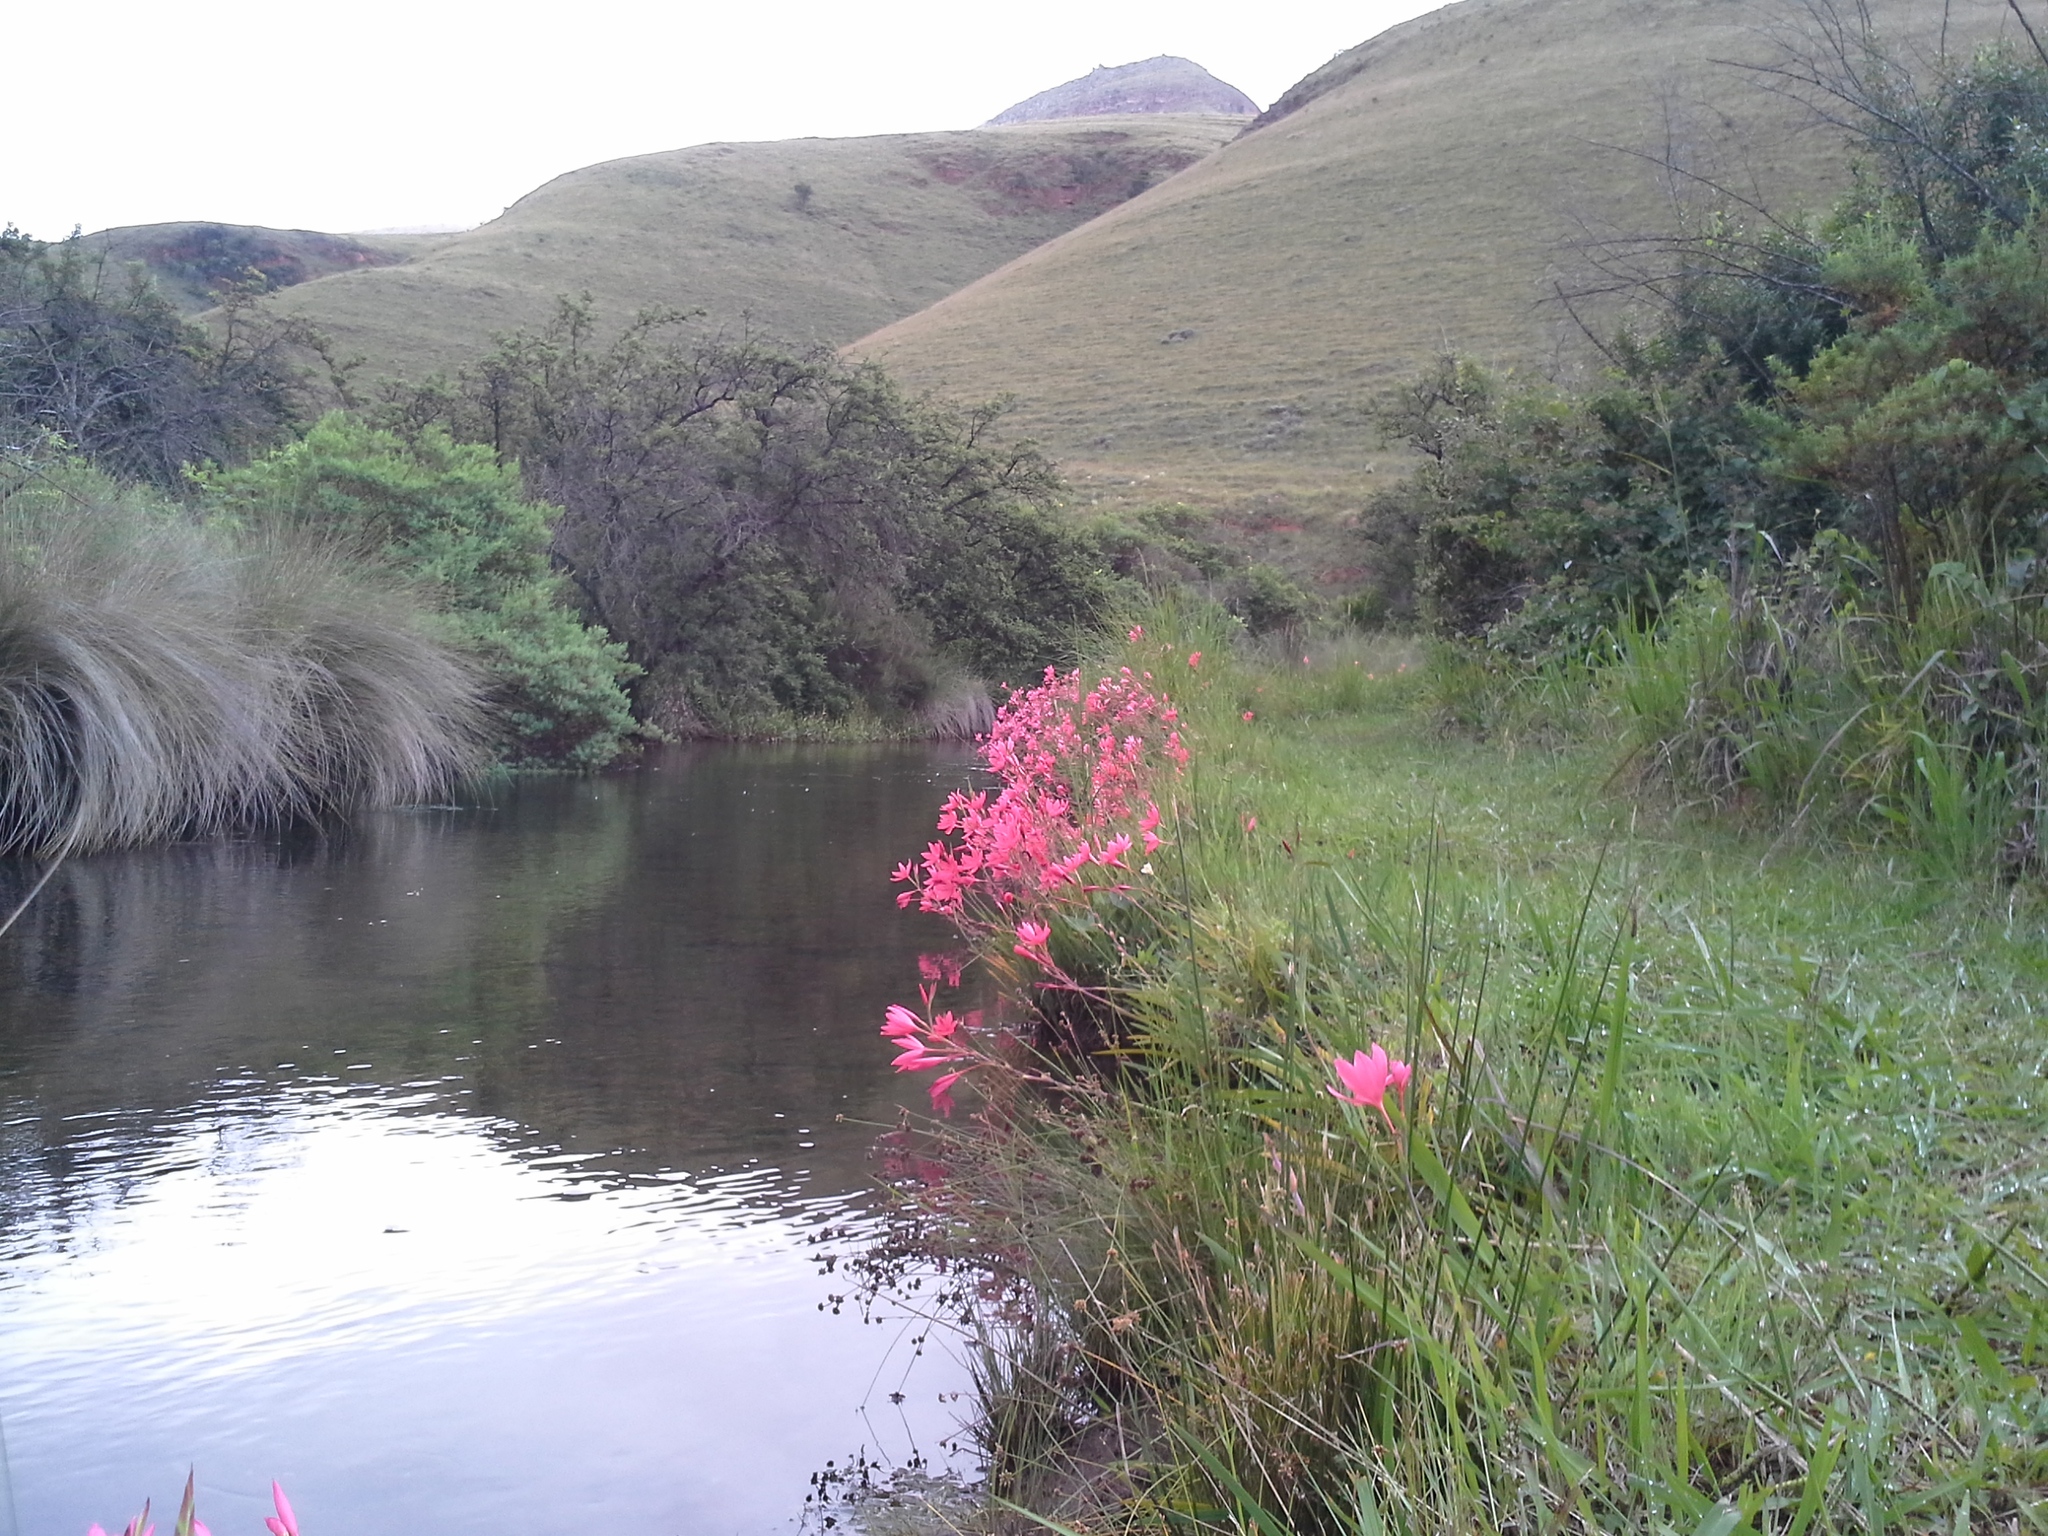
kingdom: Plantae
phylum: Tracheophyta
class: Liliopsida
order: Asparagales
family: Iridaceae
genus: Hesperantha
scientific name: Hesperantha coccinea
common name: River-lily
